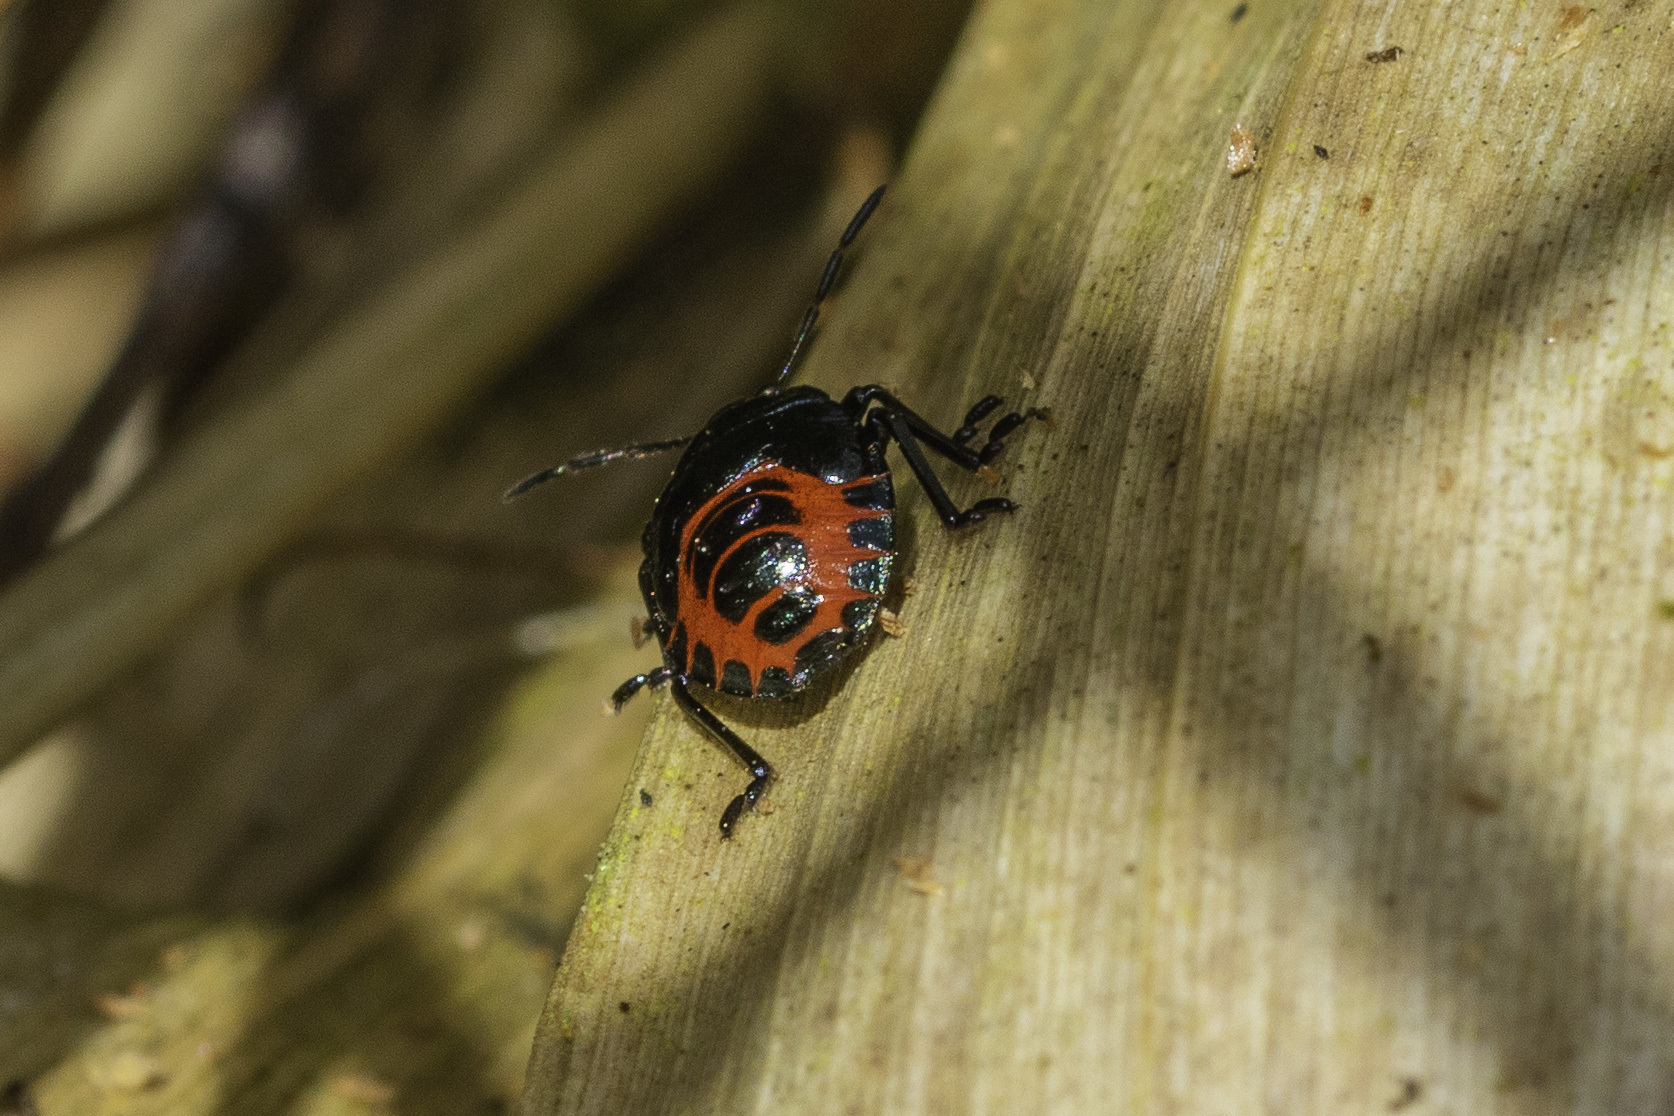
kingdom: Animalia
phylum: Arthropoda
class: Insecta
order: Hemiptera
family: Pentatomidae
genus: Zicrona
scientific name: Zicrona caerulea
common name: Blue shieldbug
